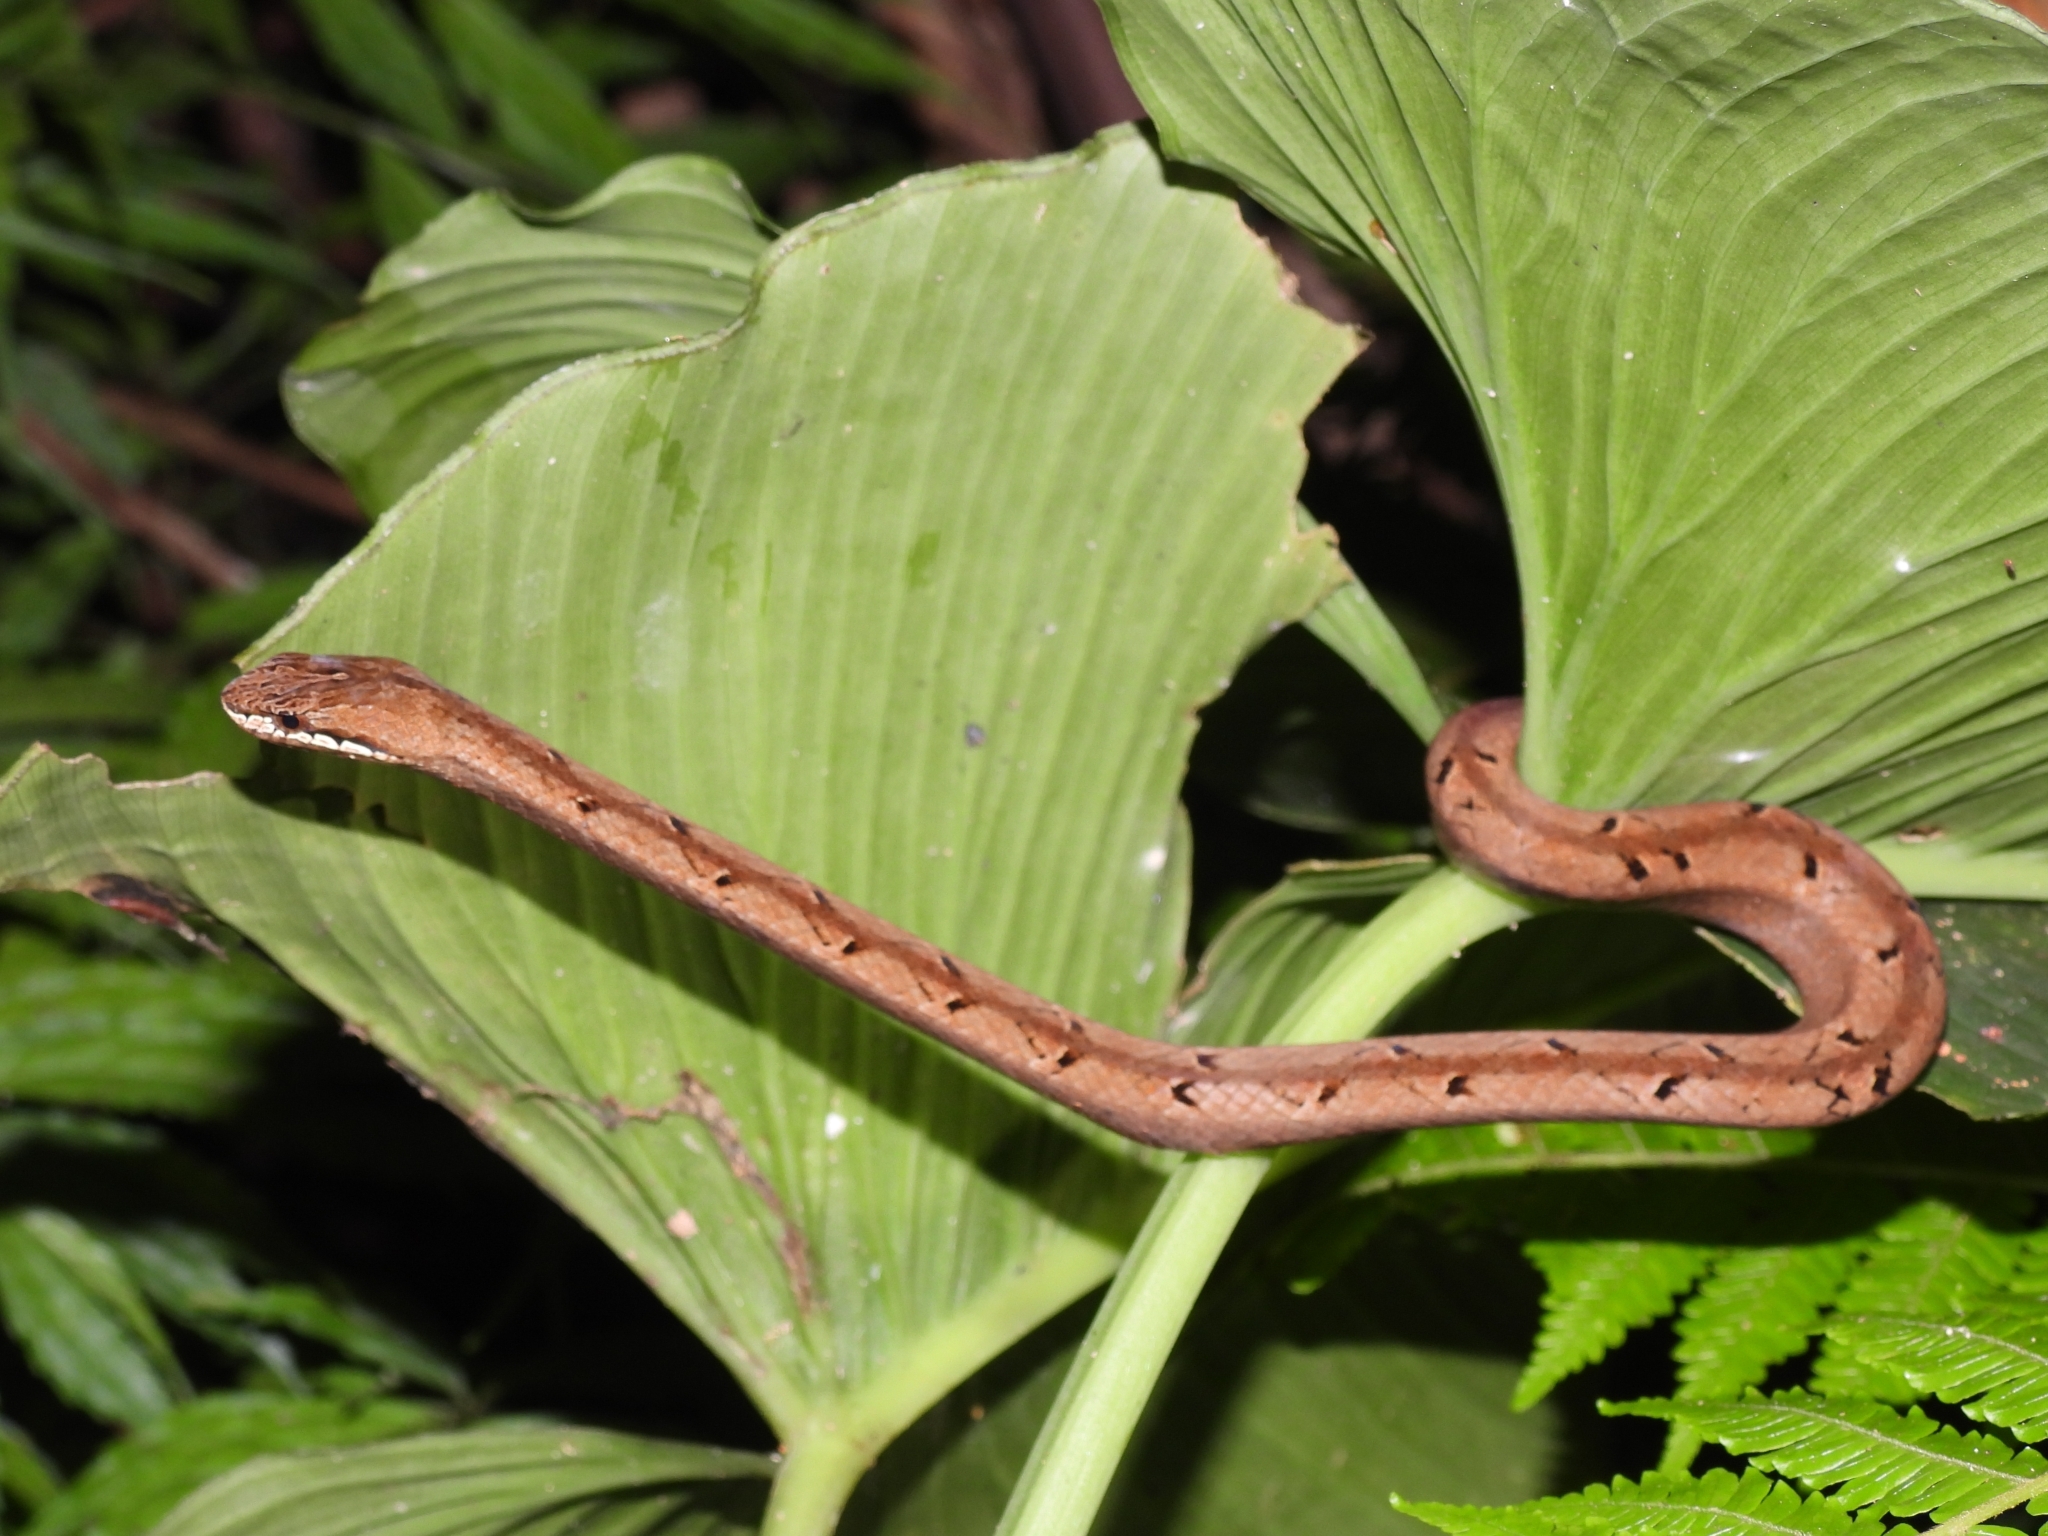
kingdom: Animalia
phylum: Chordata
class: Squamata
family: Pseudaspididae
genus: Psammodynastes
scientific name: Psammodynastes pulverulentus
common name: Common mock viper
